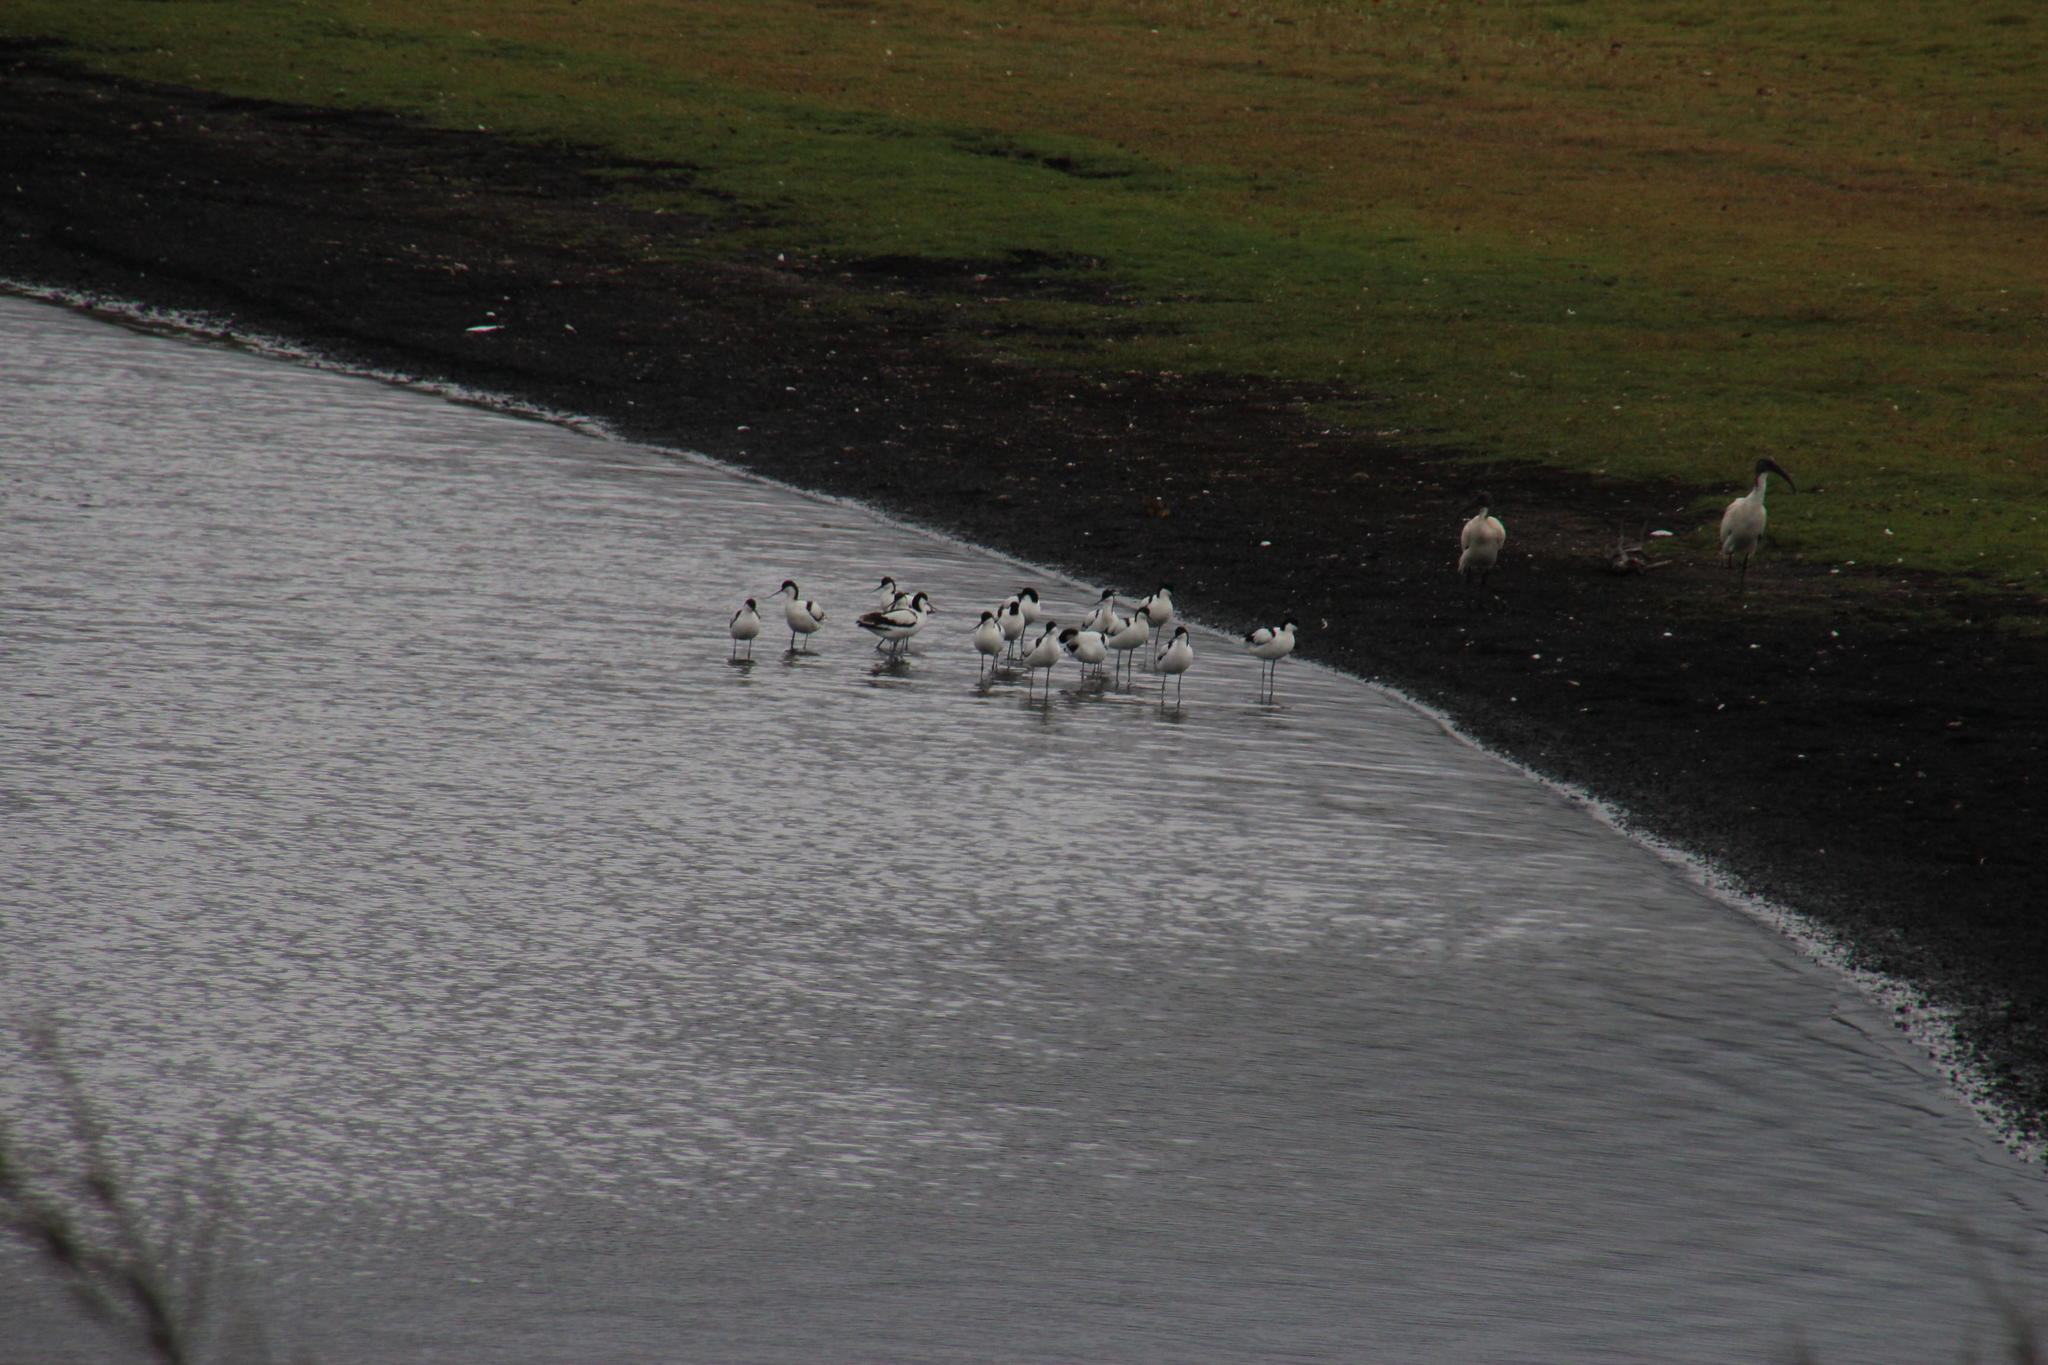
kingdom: Animalia
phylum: Chordata
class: Aves
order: Charadriiformes
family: Recurvirostridae
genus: Recurvirostra
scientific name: Recurvirostra avosetta
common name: Pied avocet
